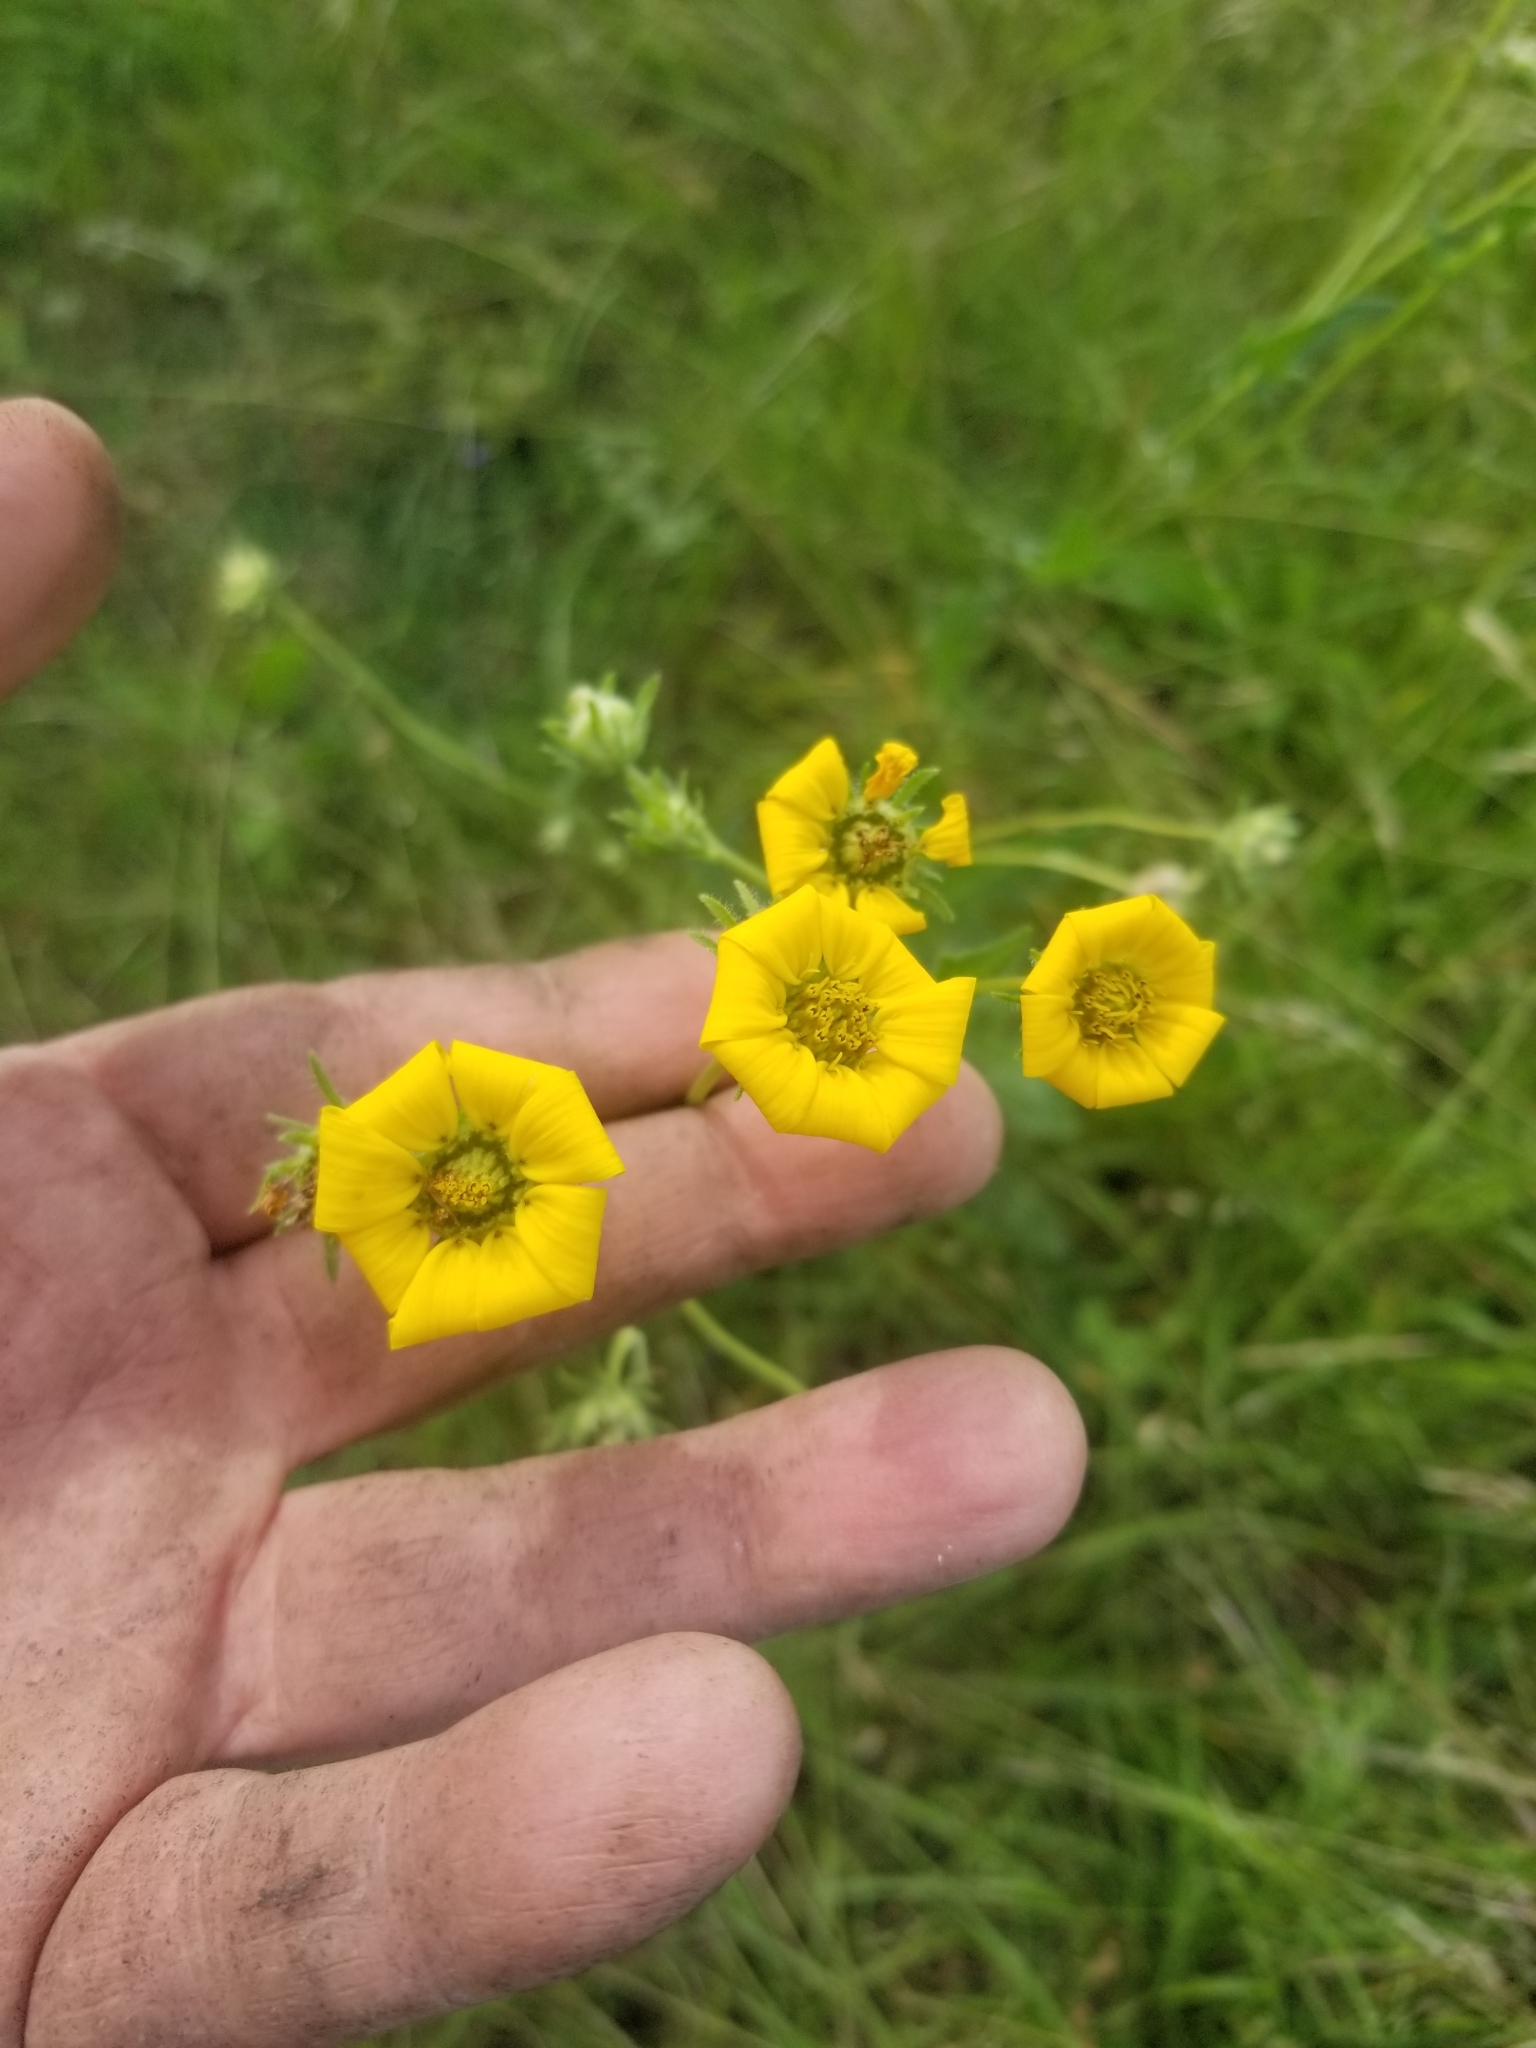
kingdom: Plantae
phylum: Tracheophyta
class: Magnoliopsida
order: Asterales
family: Asteraceae
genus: Engelmannia
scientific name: Engelmannia peristenia
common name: Engelmann's daisy
